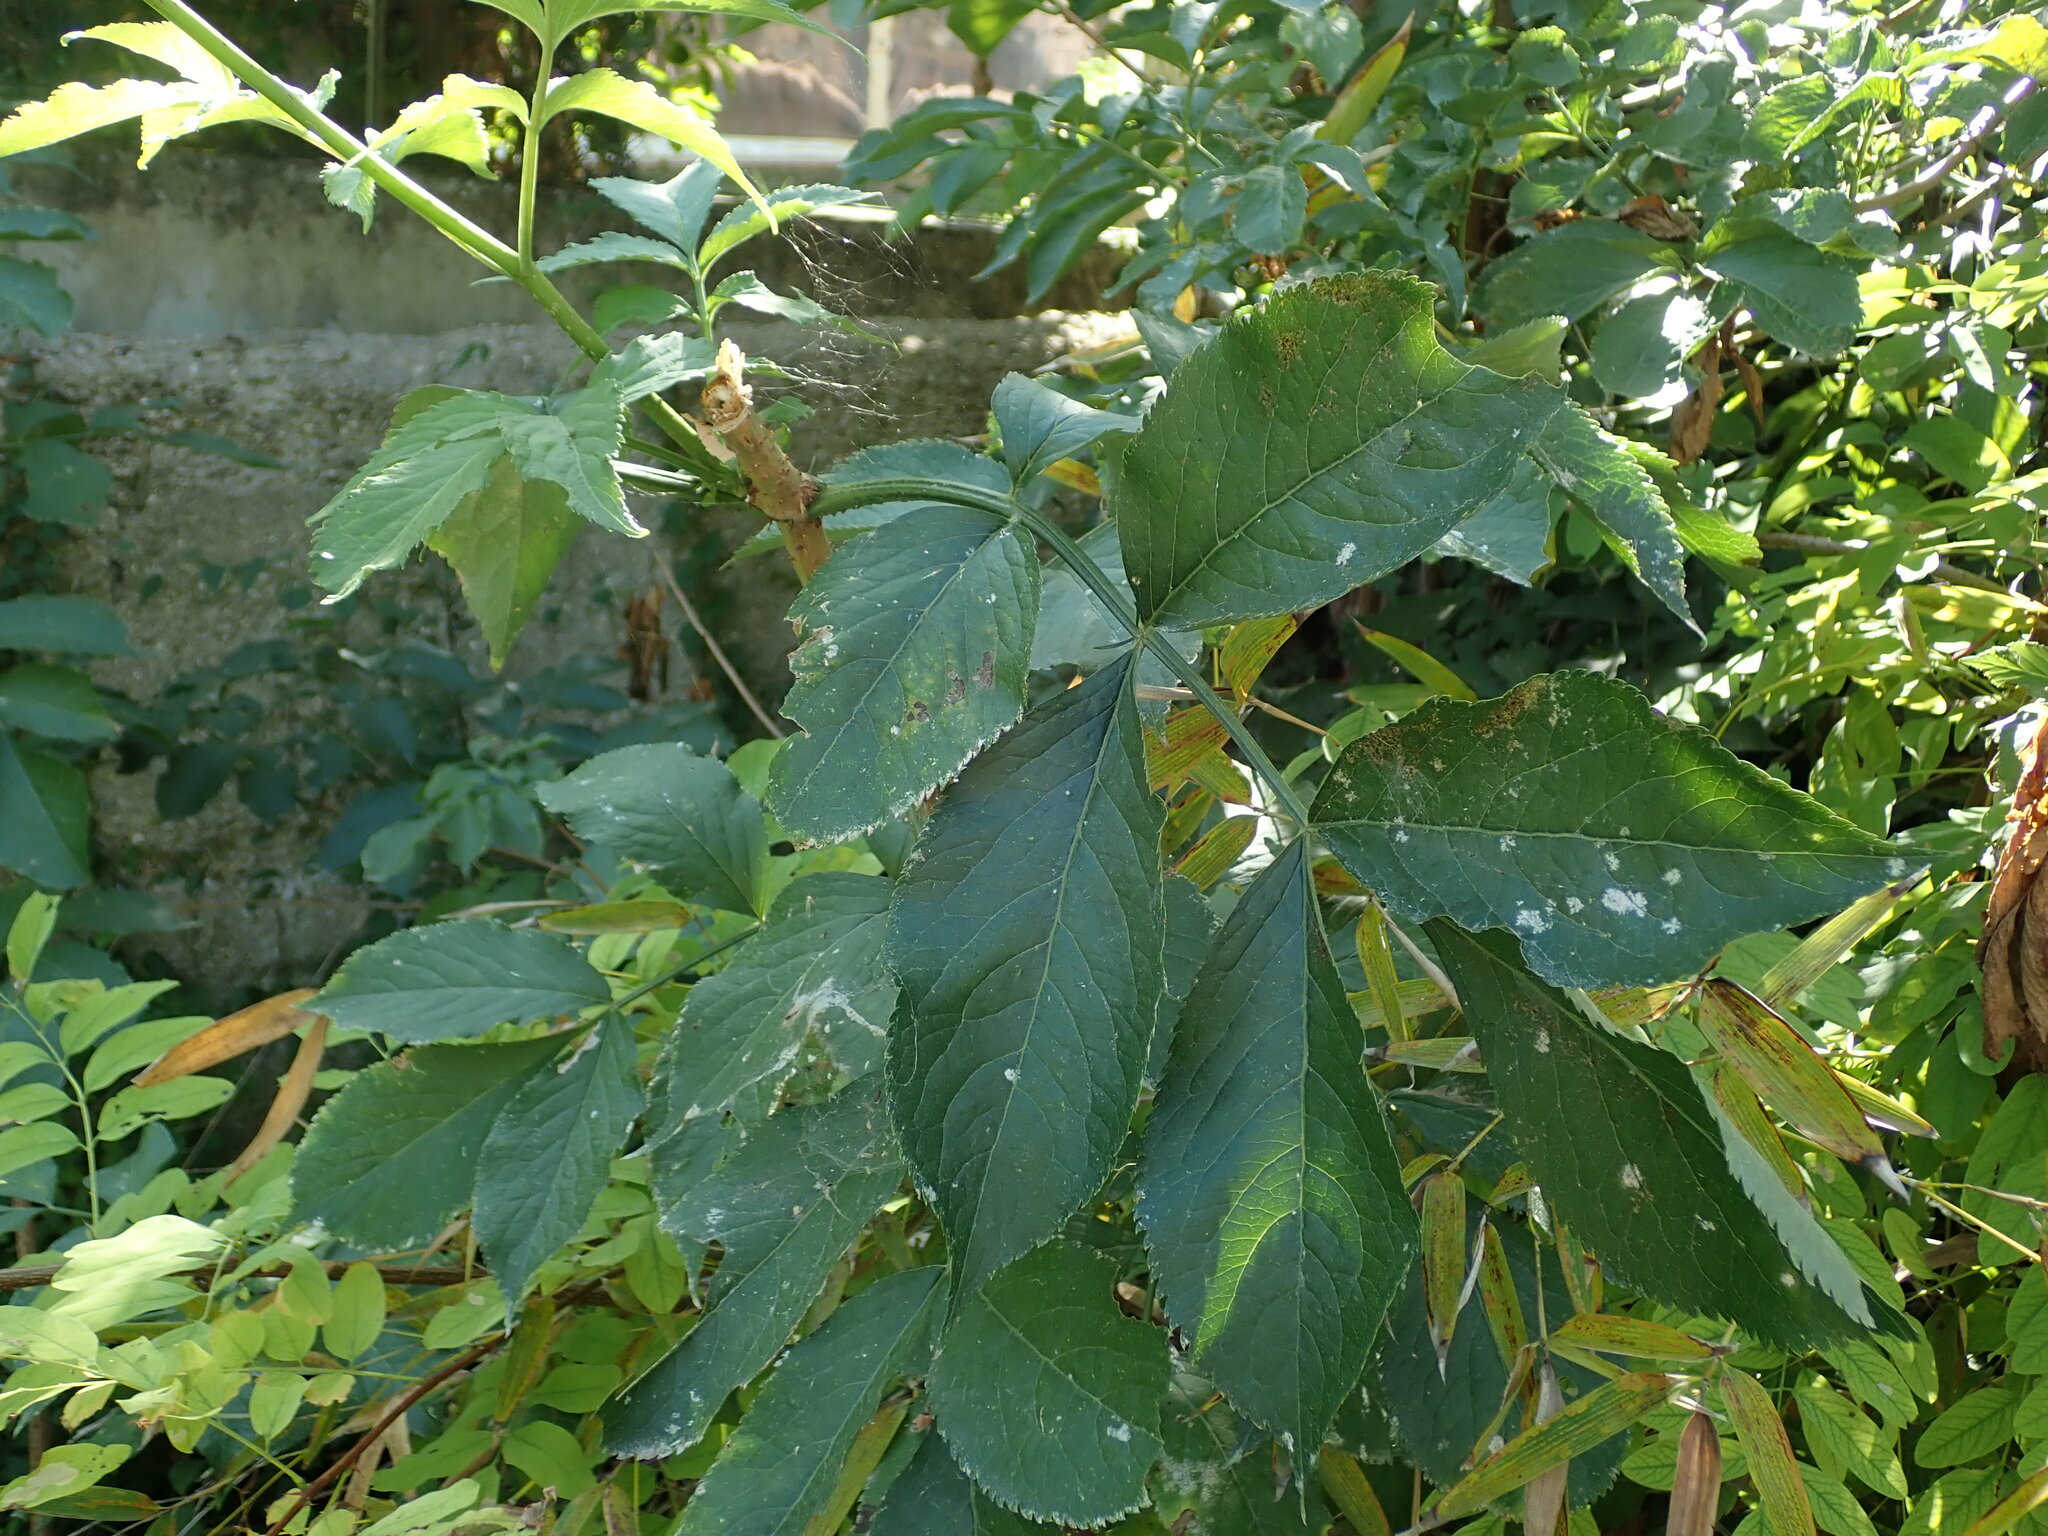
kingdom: Plantae
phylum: Tracheophyta
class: Magnoliopsida
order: Dipsacales
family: Viburnaceae
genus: Sambucus
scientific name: Sambucus nigra
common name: Elder
